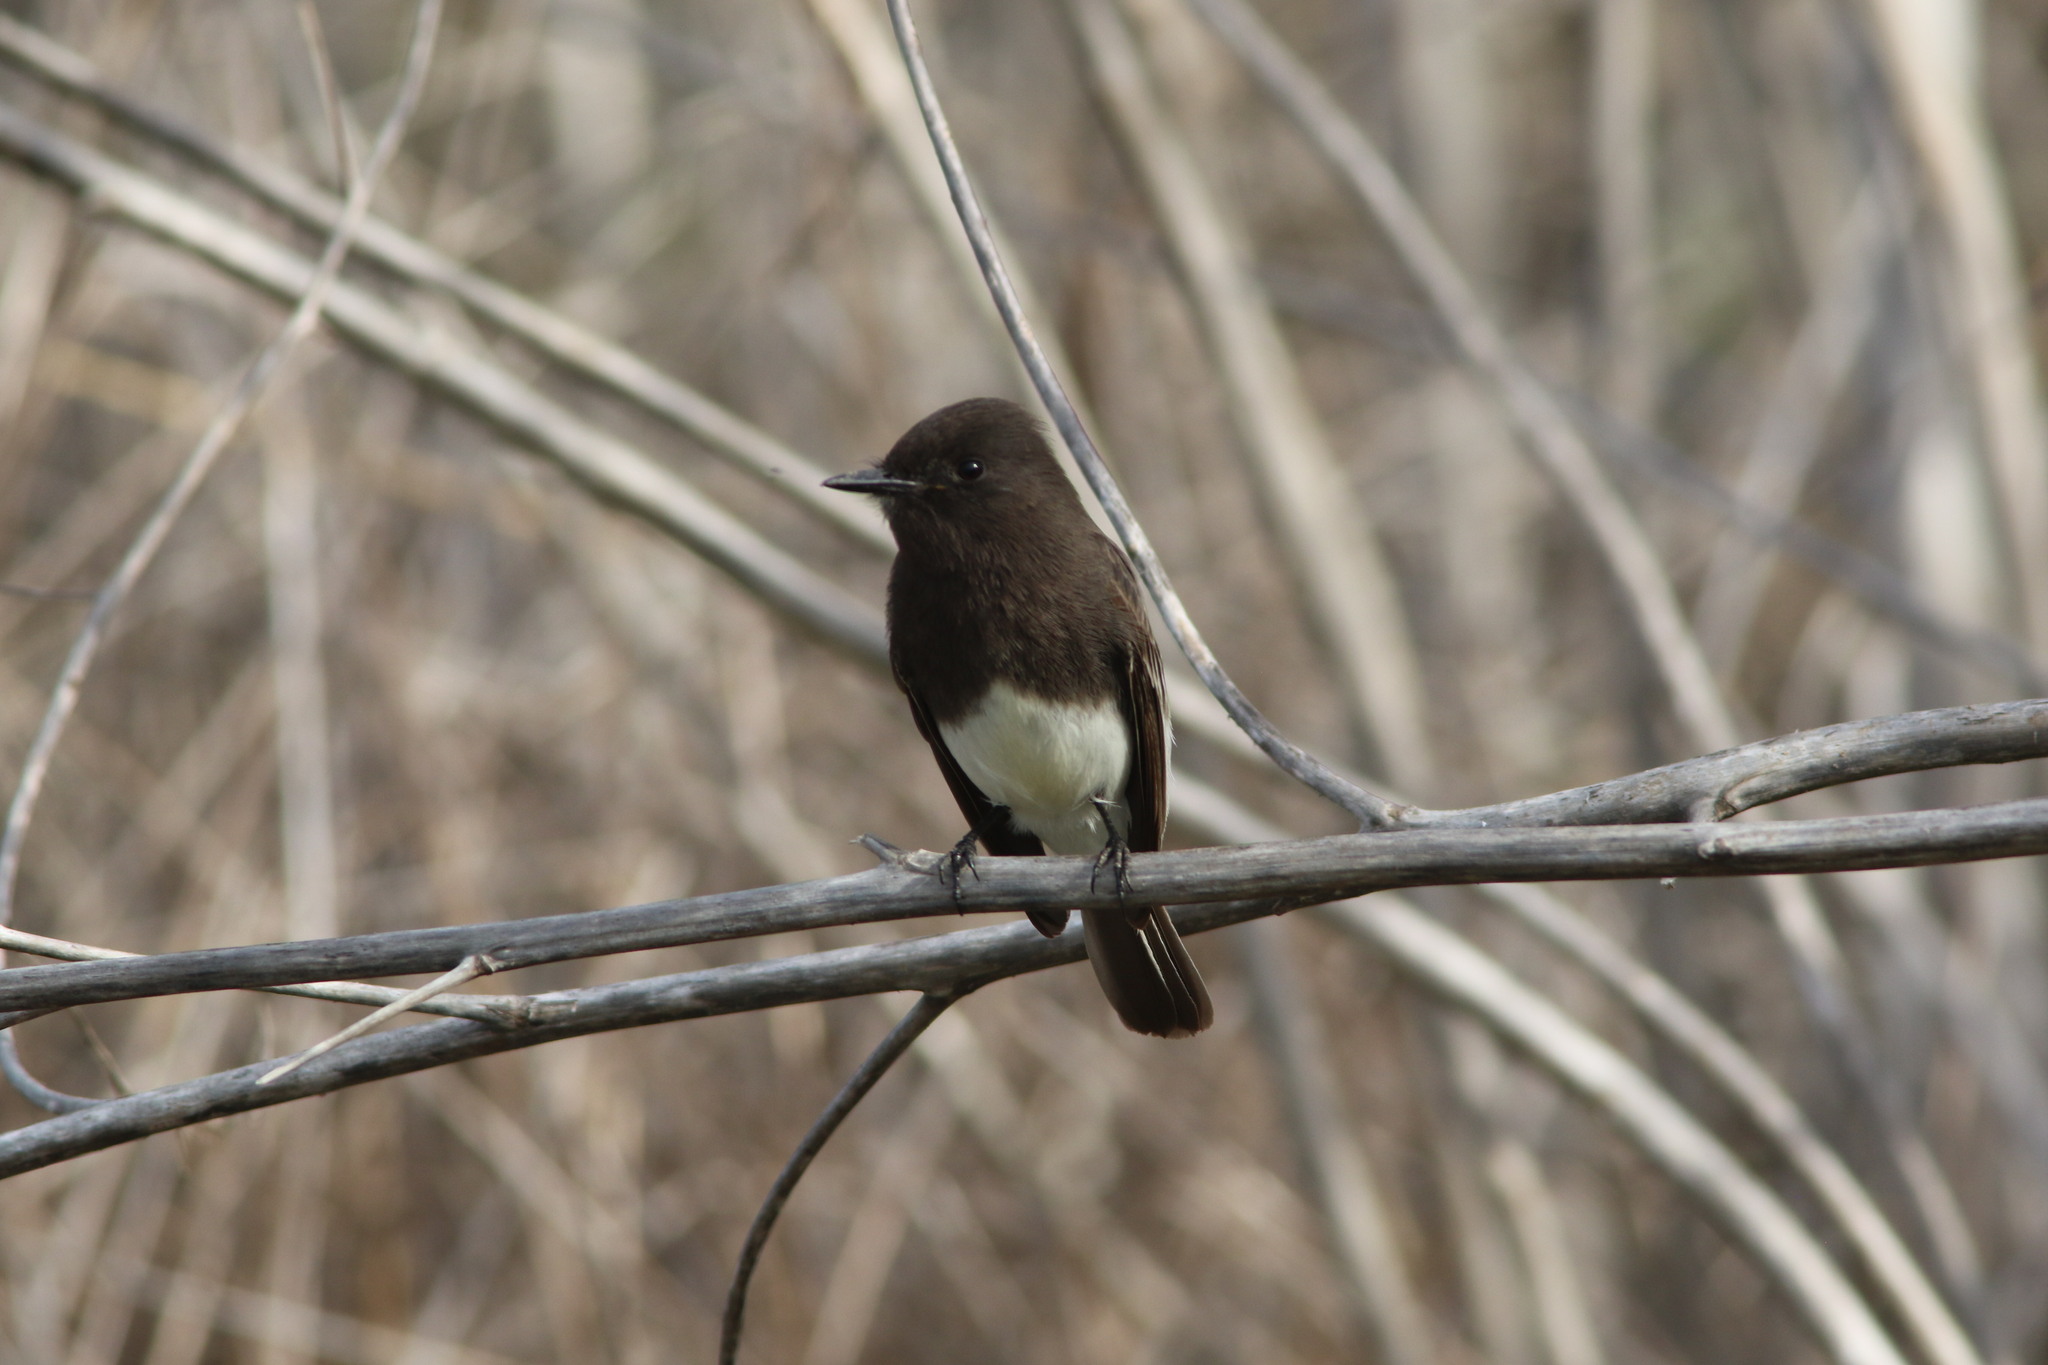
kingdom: Animalia
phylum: Chordata
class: Aves
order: Passeriformes
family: Tyrannidae
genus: Sayornis
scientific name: Sayornis nigricans
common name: Black phoebe
